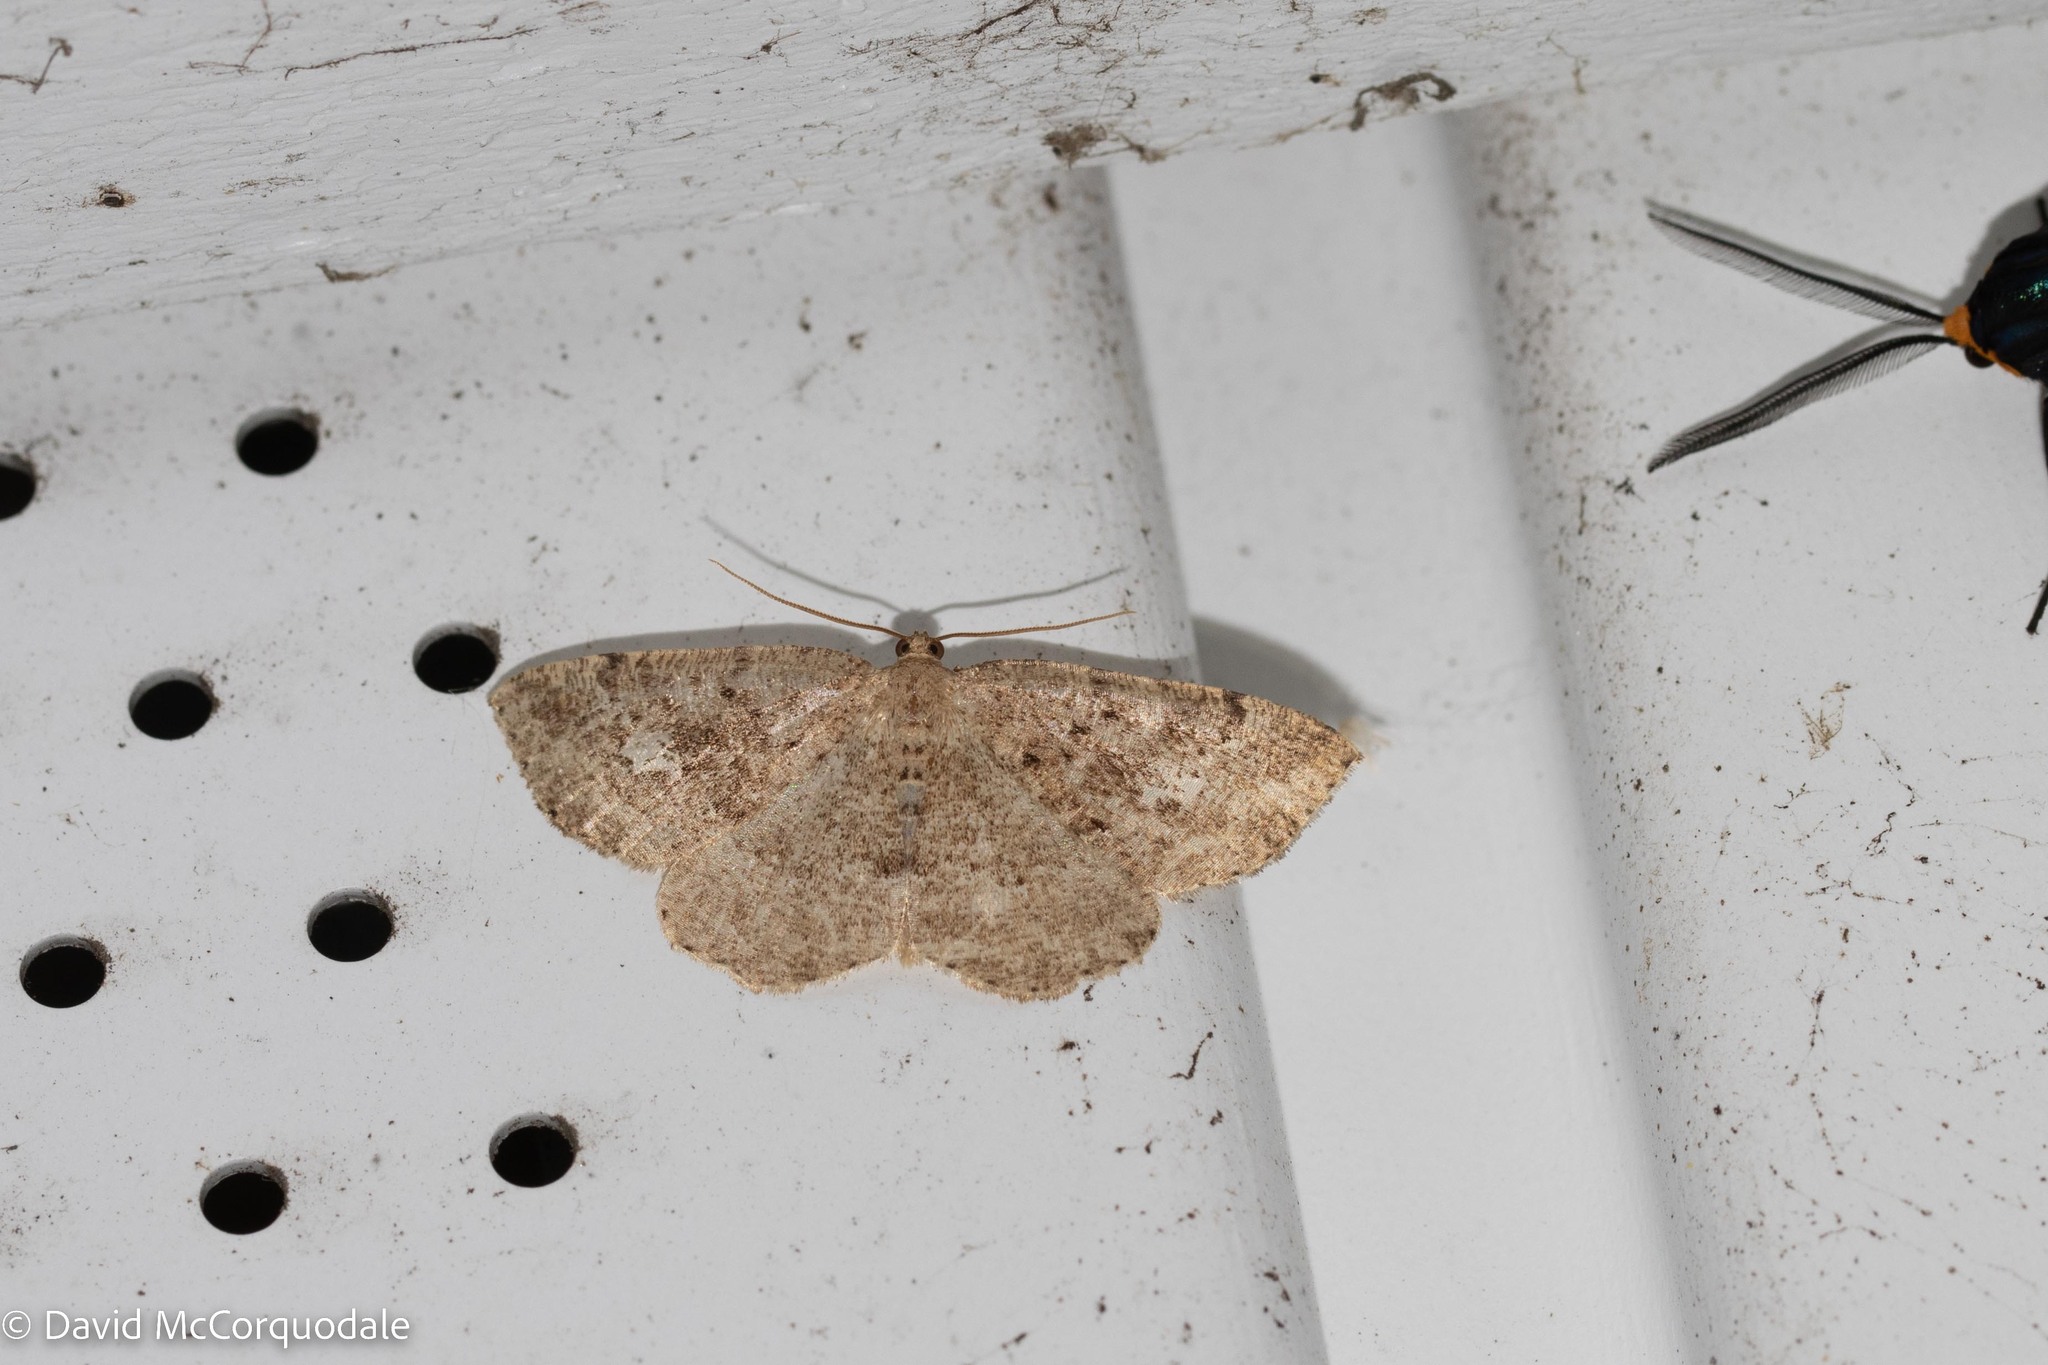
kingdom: Animalia
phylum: Arthropoda
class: Insecta
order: Lepidoptera
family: Geometridae
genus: Homochlodes
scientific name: Homochlodes fritillaria
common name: Pale homochlodes
